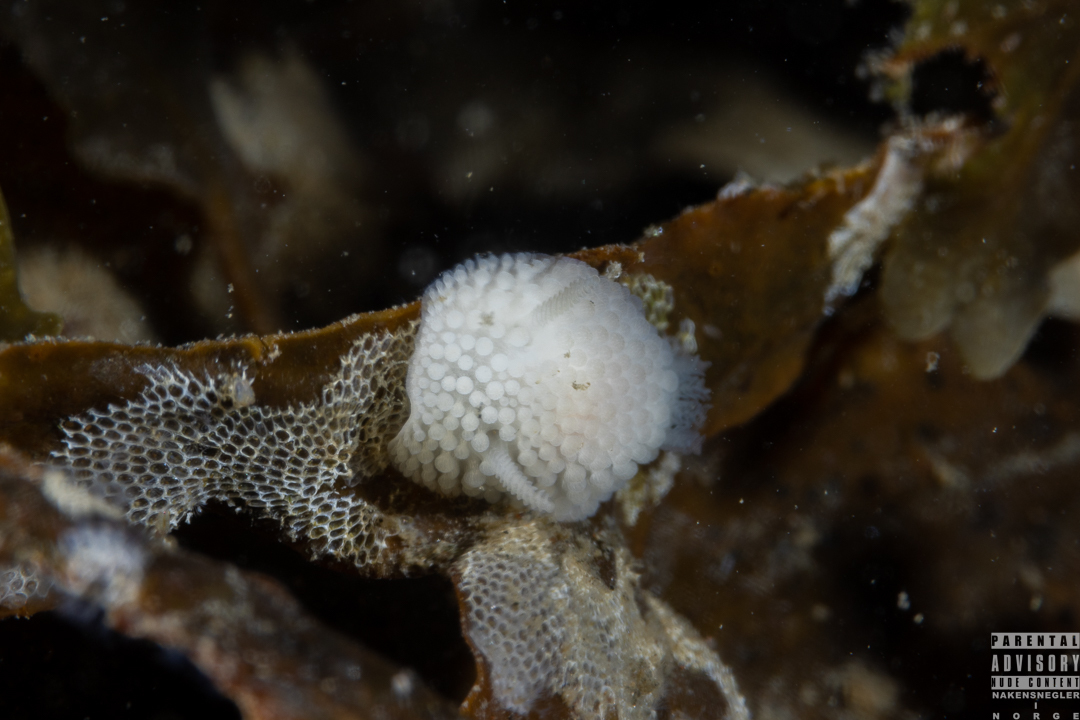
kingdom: Animalia
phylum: Mollusca
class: Gastropoda
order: Nudibranchia
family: Onchidorididae
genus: Onchidoris
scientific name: Onchidoris muricata
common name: Rough doris
